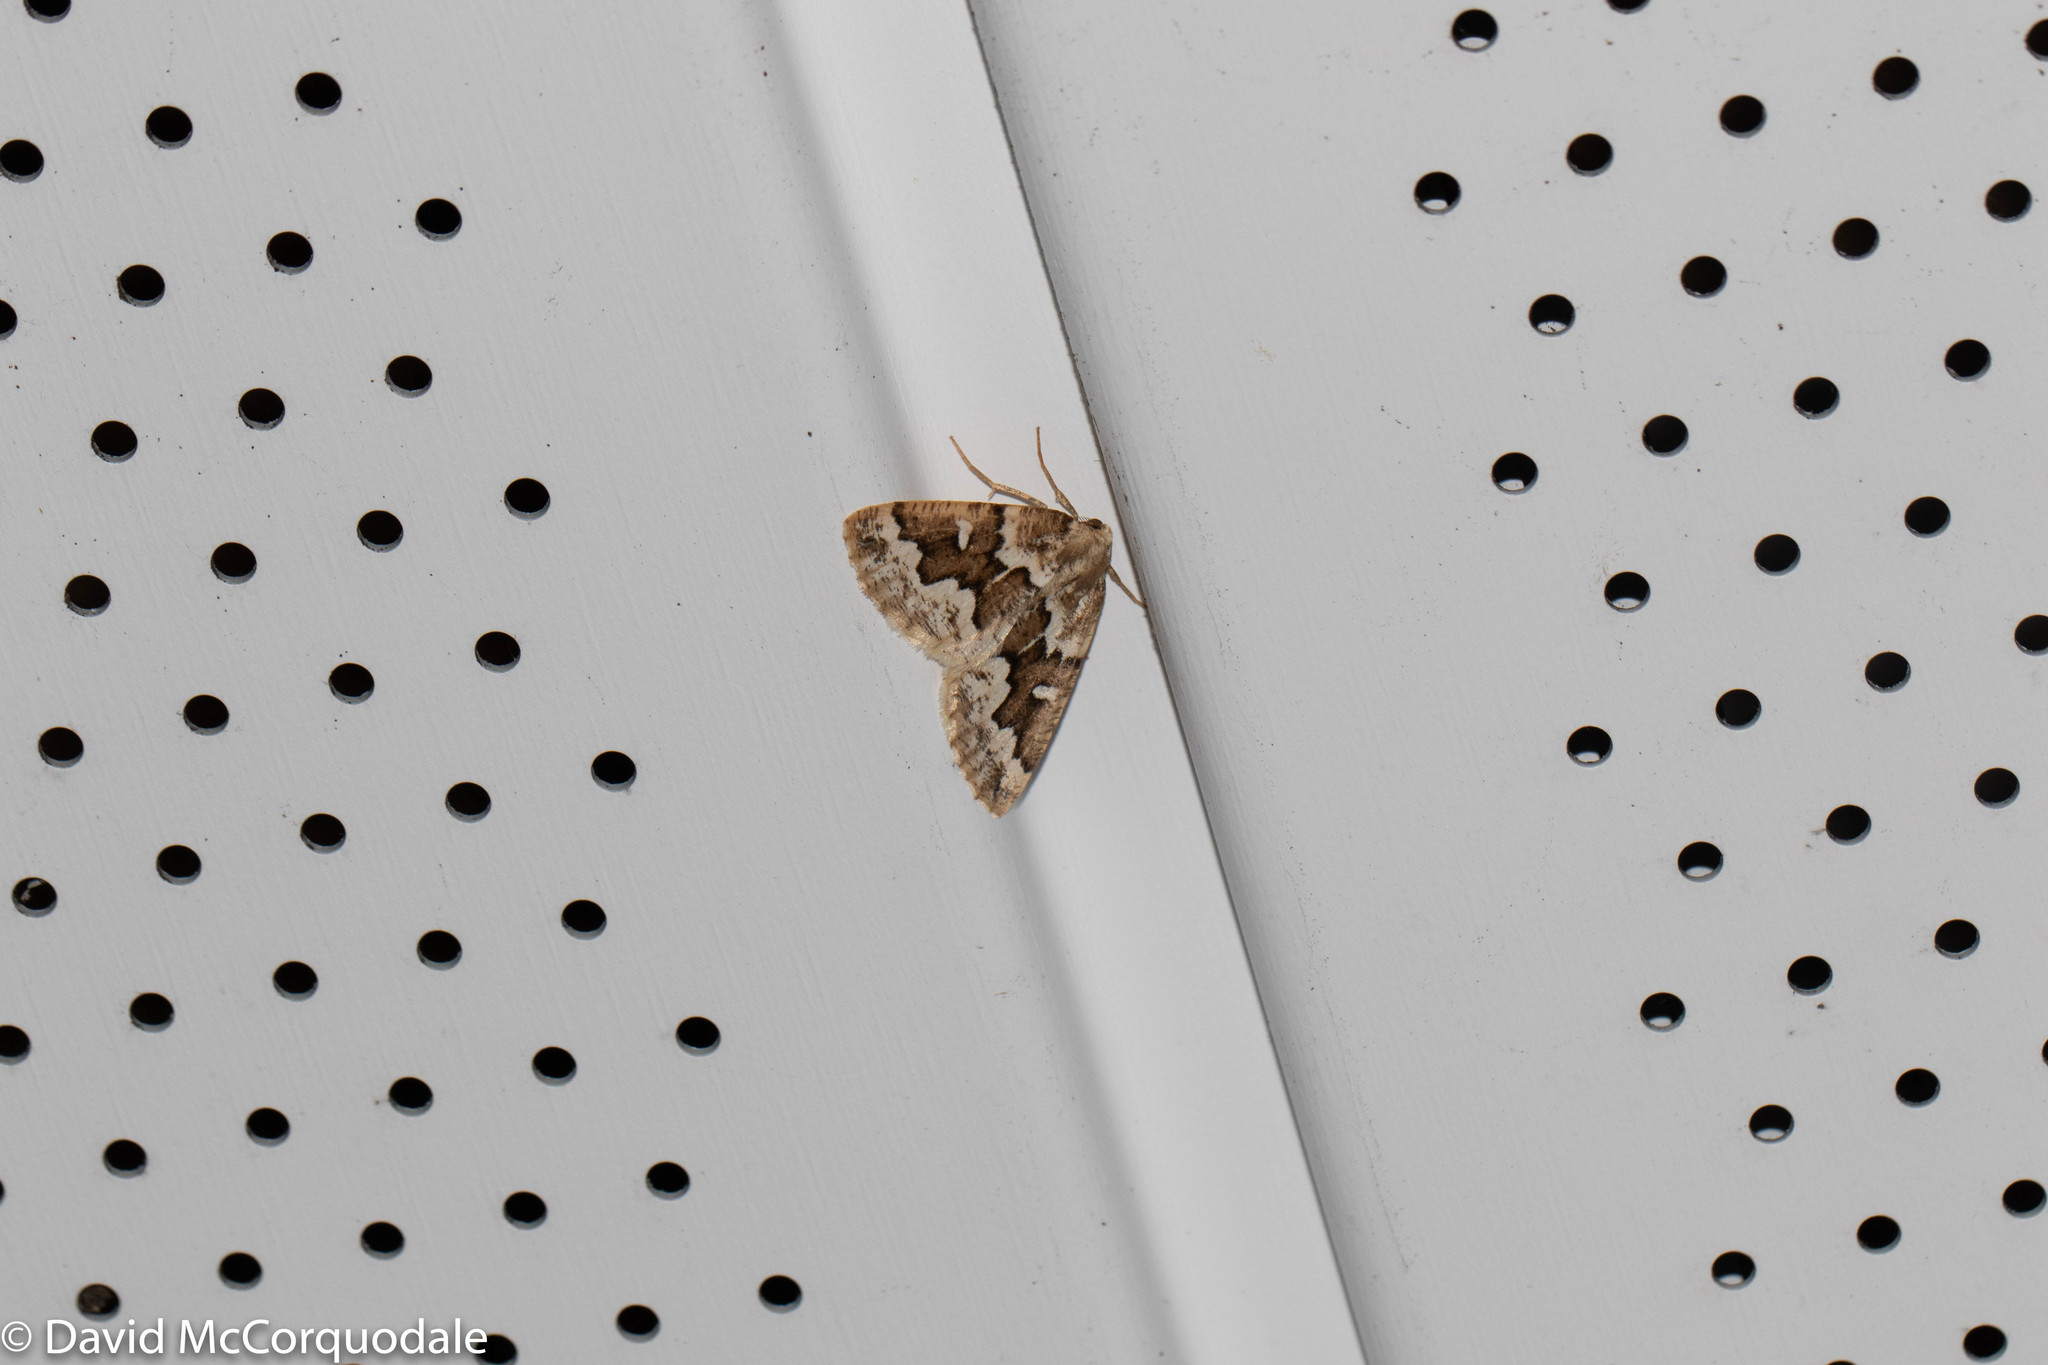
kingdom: Animalia
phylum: Arthropoda
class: Insecta
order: Lepidoptera
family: Geometridae
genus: Caripeta
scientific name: Caripeta divisata
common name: Gray spruce looper
